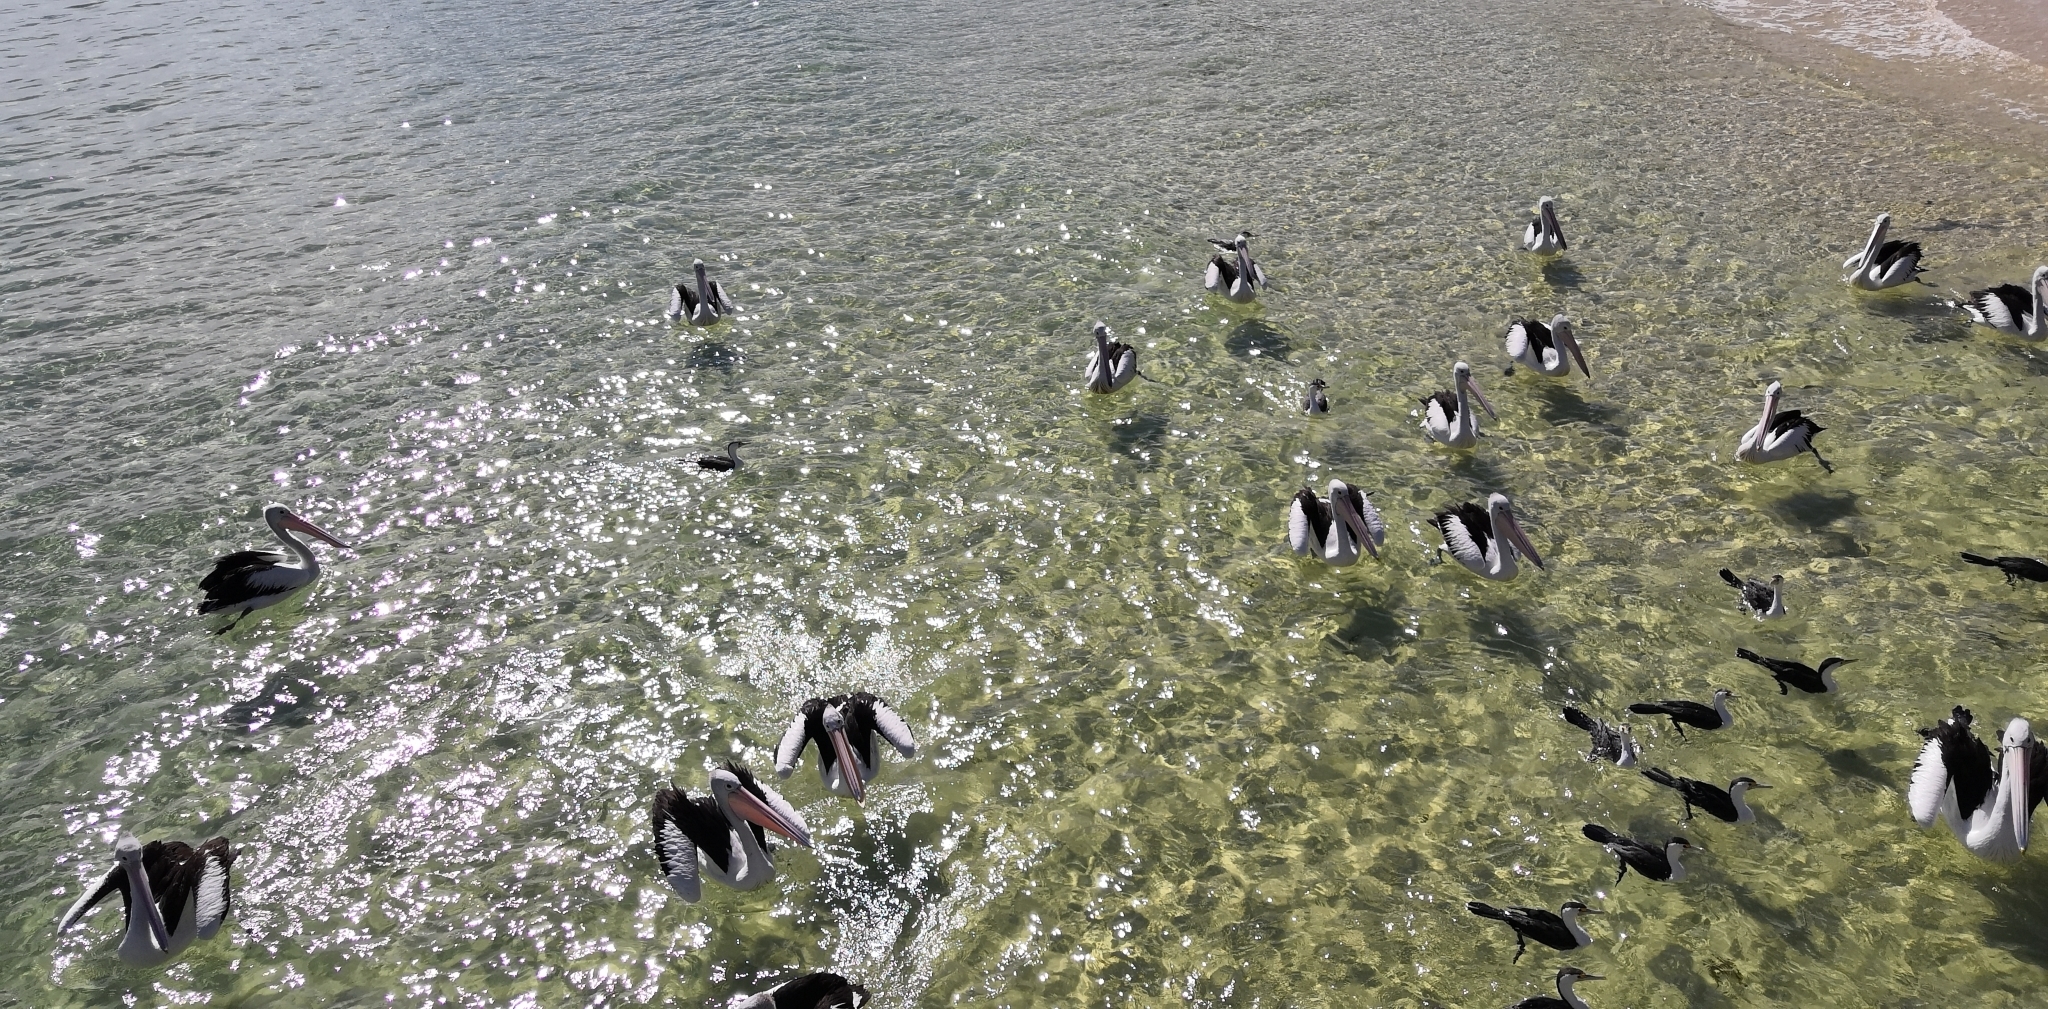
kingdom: Animalia
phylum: Chordata
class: Aves
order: Pelecaniformes
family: Pelecanidae
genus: Pelecanus
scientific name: Pelecanus conspicillatus
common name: Australian pelican
